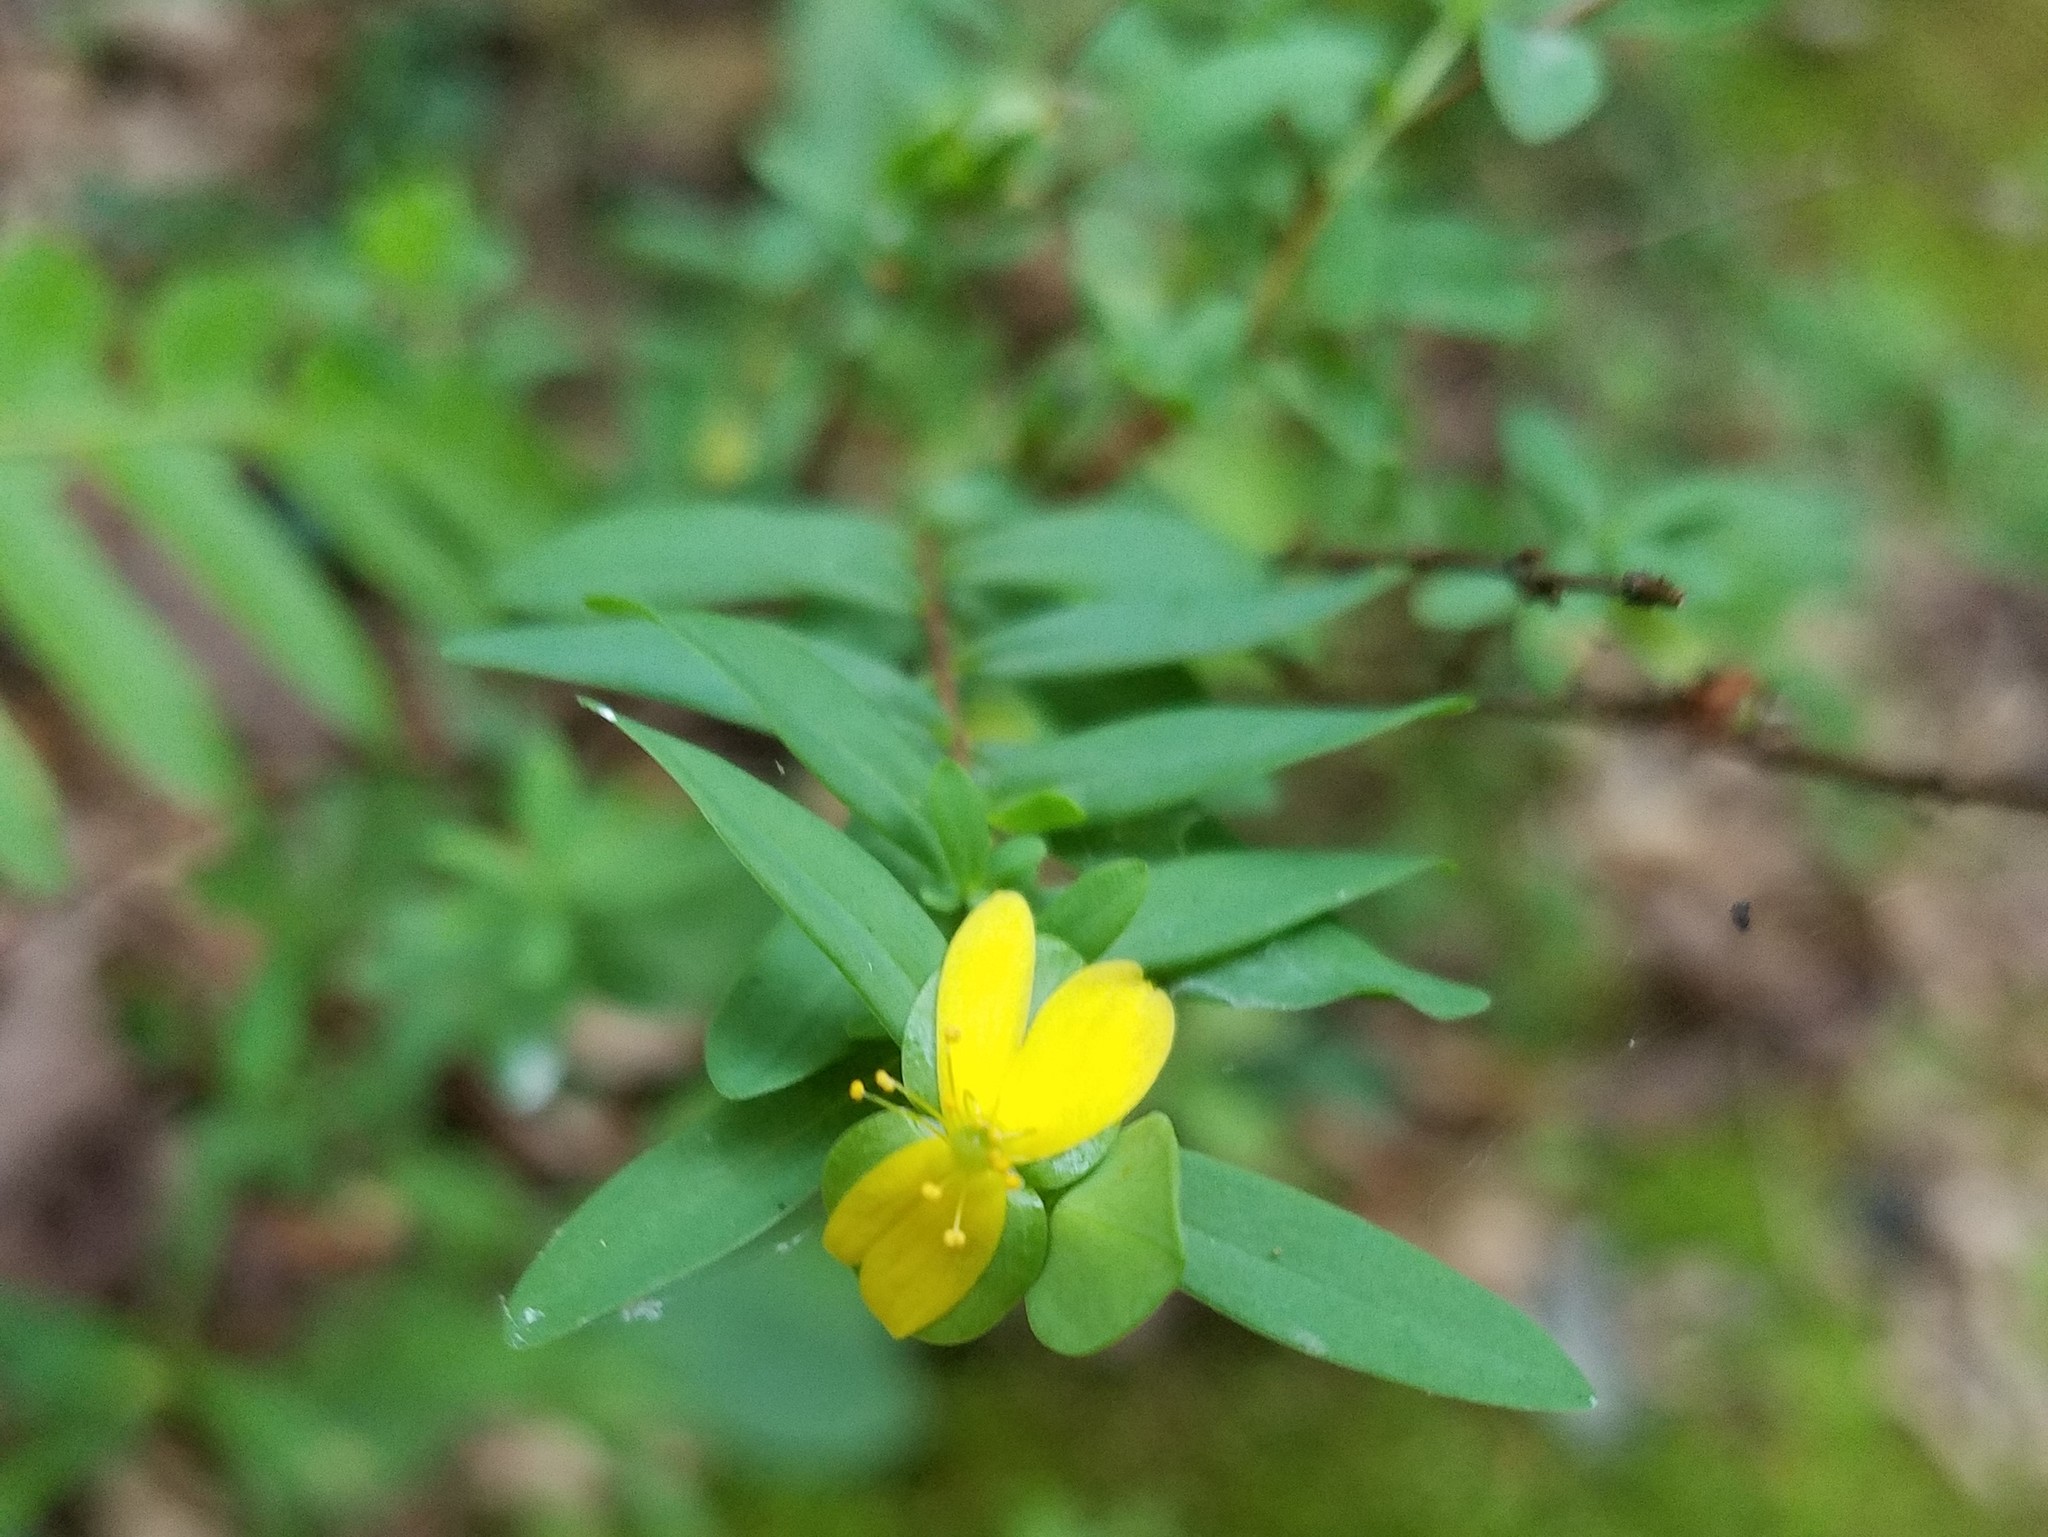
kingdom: Plantae
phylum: Tracheophyta
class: Magnoliopsida
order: Malpighiales
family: Hypericaceae
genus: Hypericum
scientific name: Hypericum hypericoides
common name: St. andrew's cross
